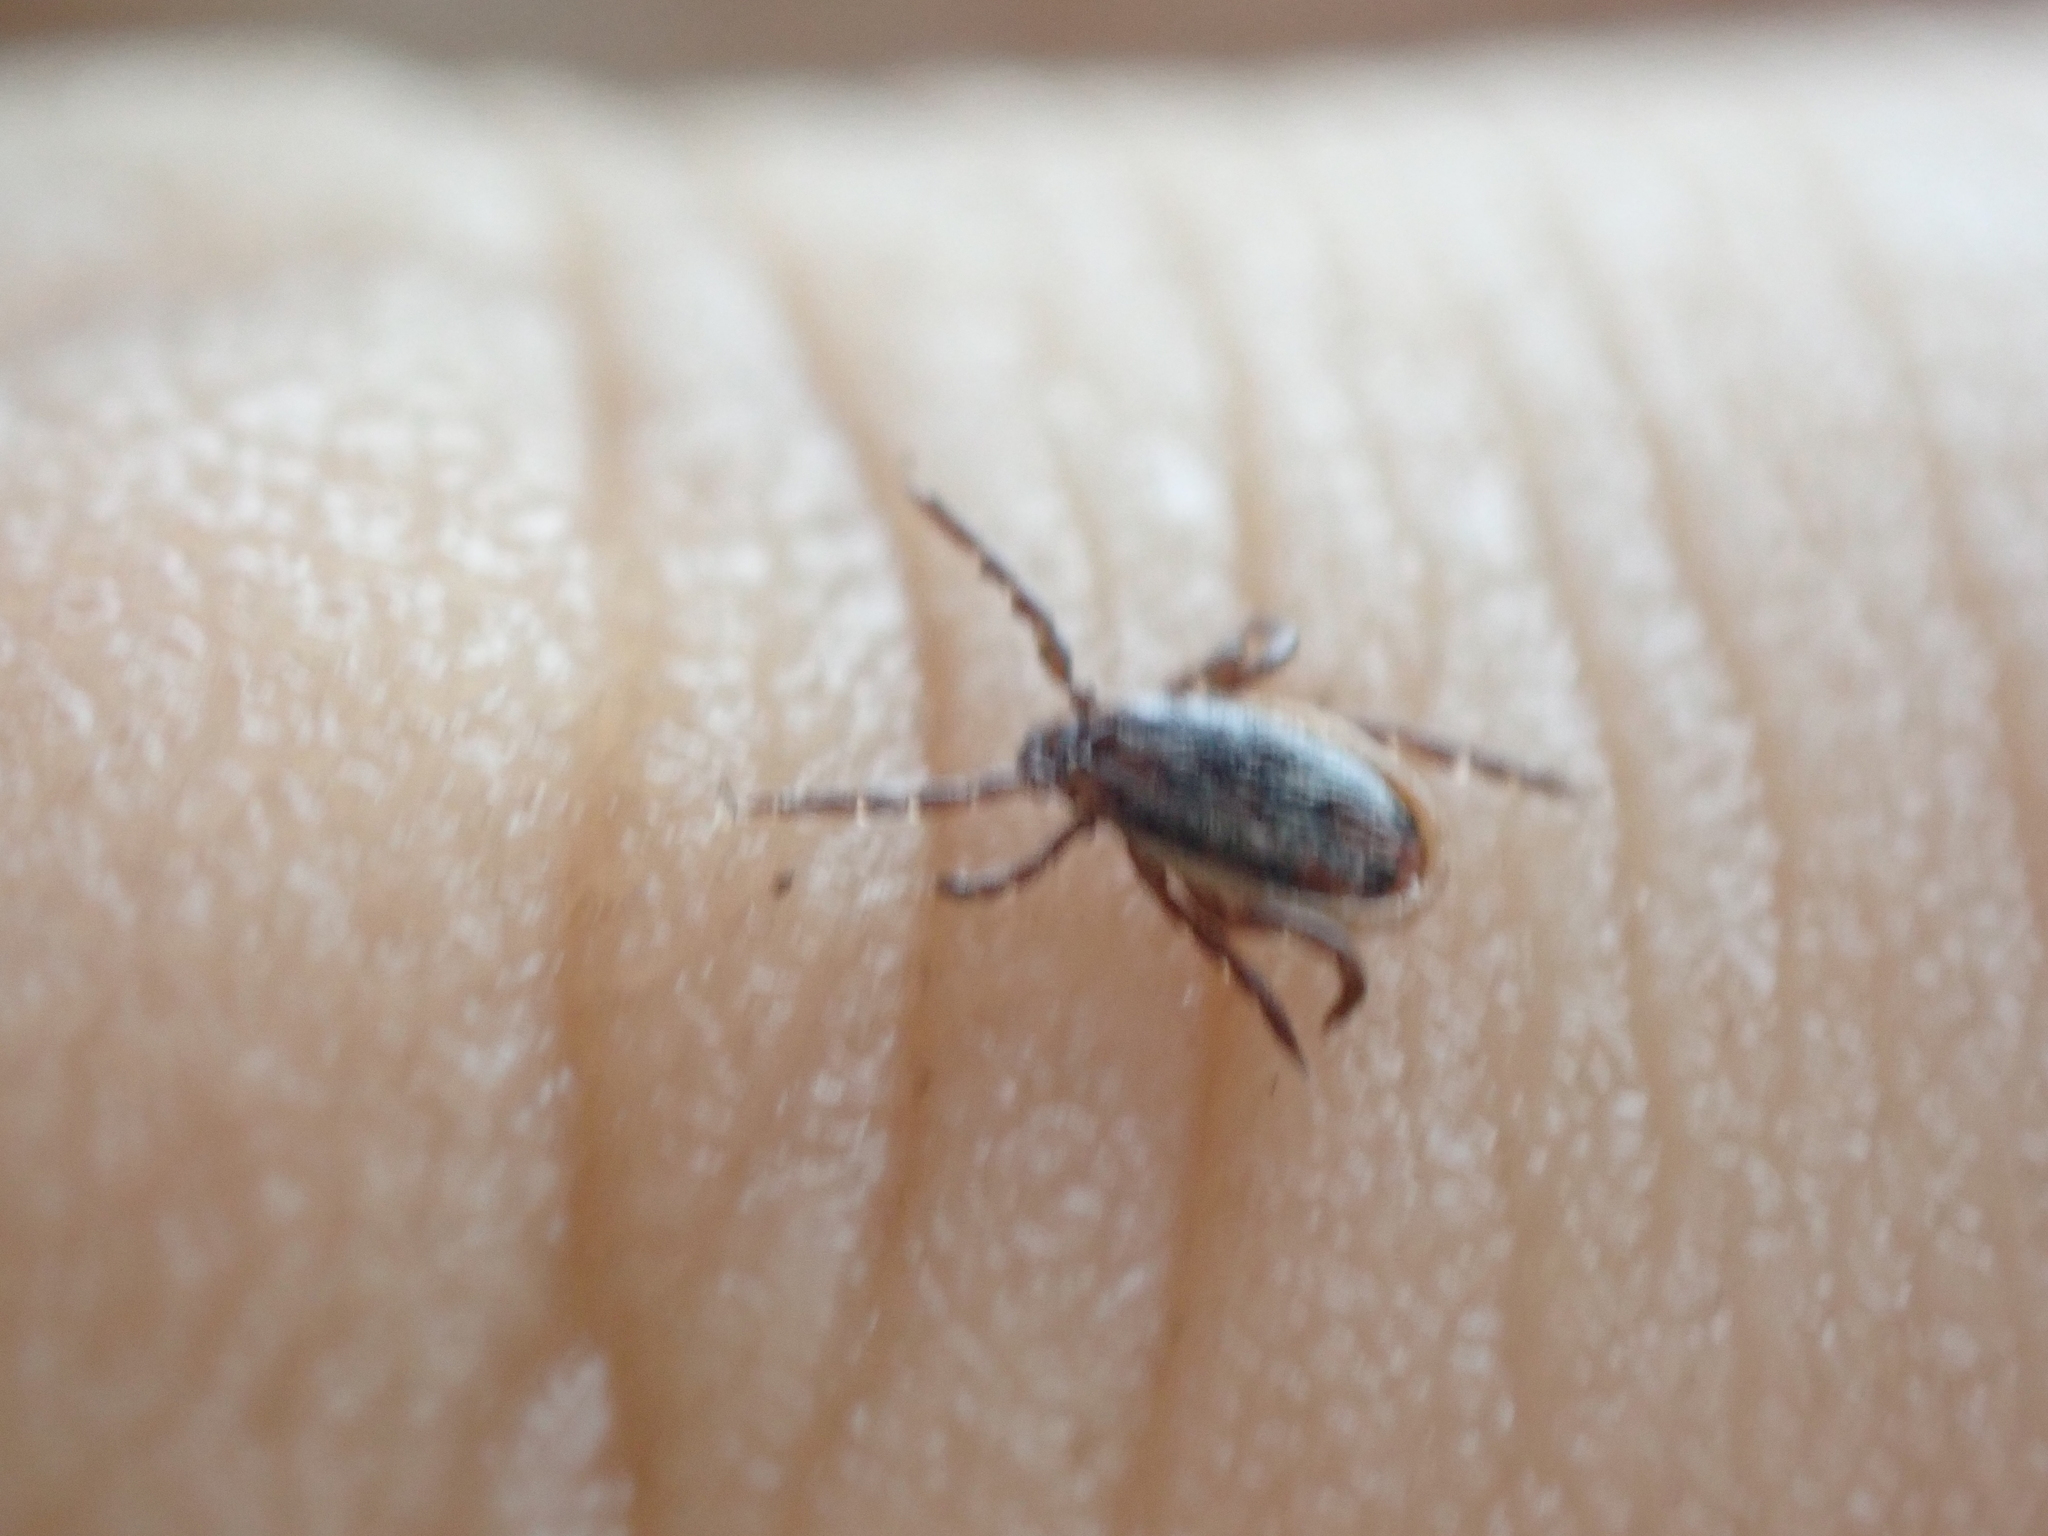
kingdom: Animalia
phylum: Arthropoda
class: Arachnida
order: Ixodida
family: Ixodidae
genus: Ixodes
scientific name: Ixodes scapularis
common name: Black legged tick
